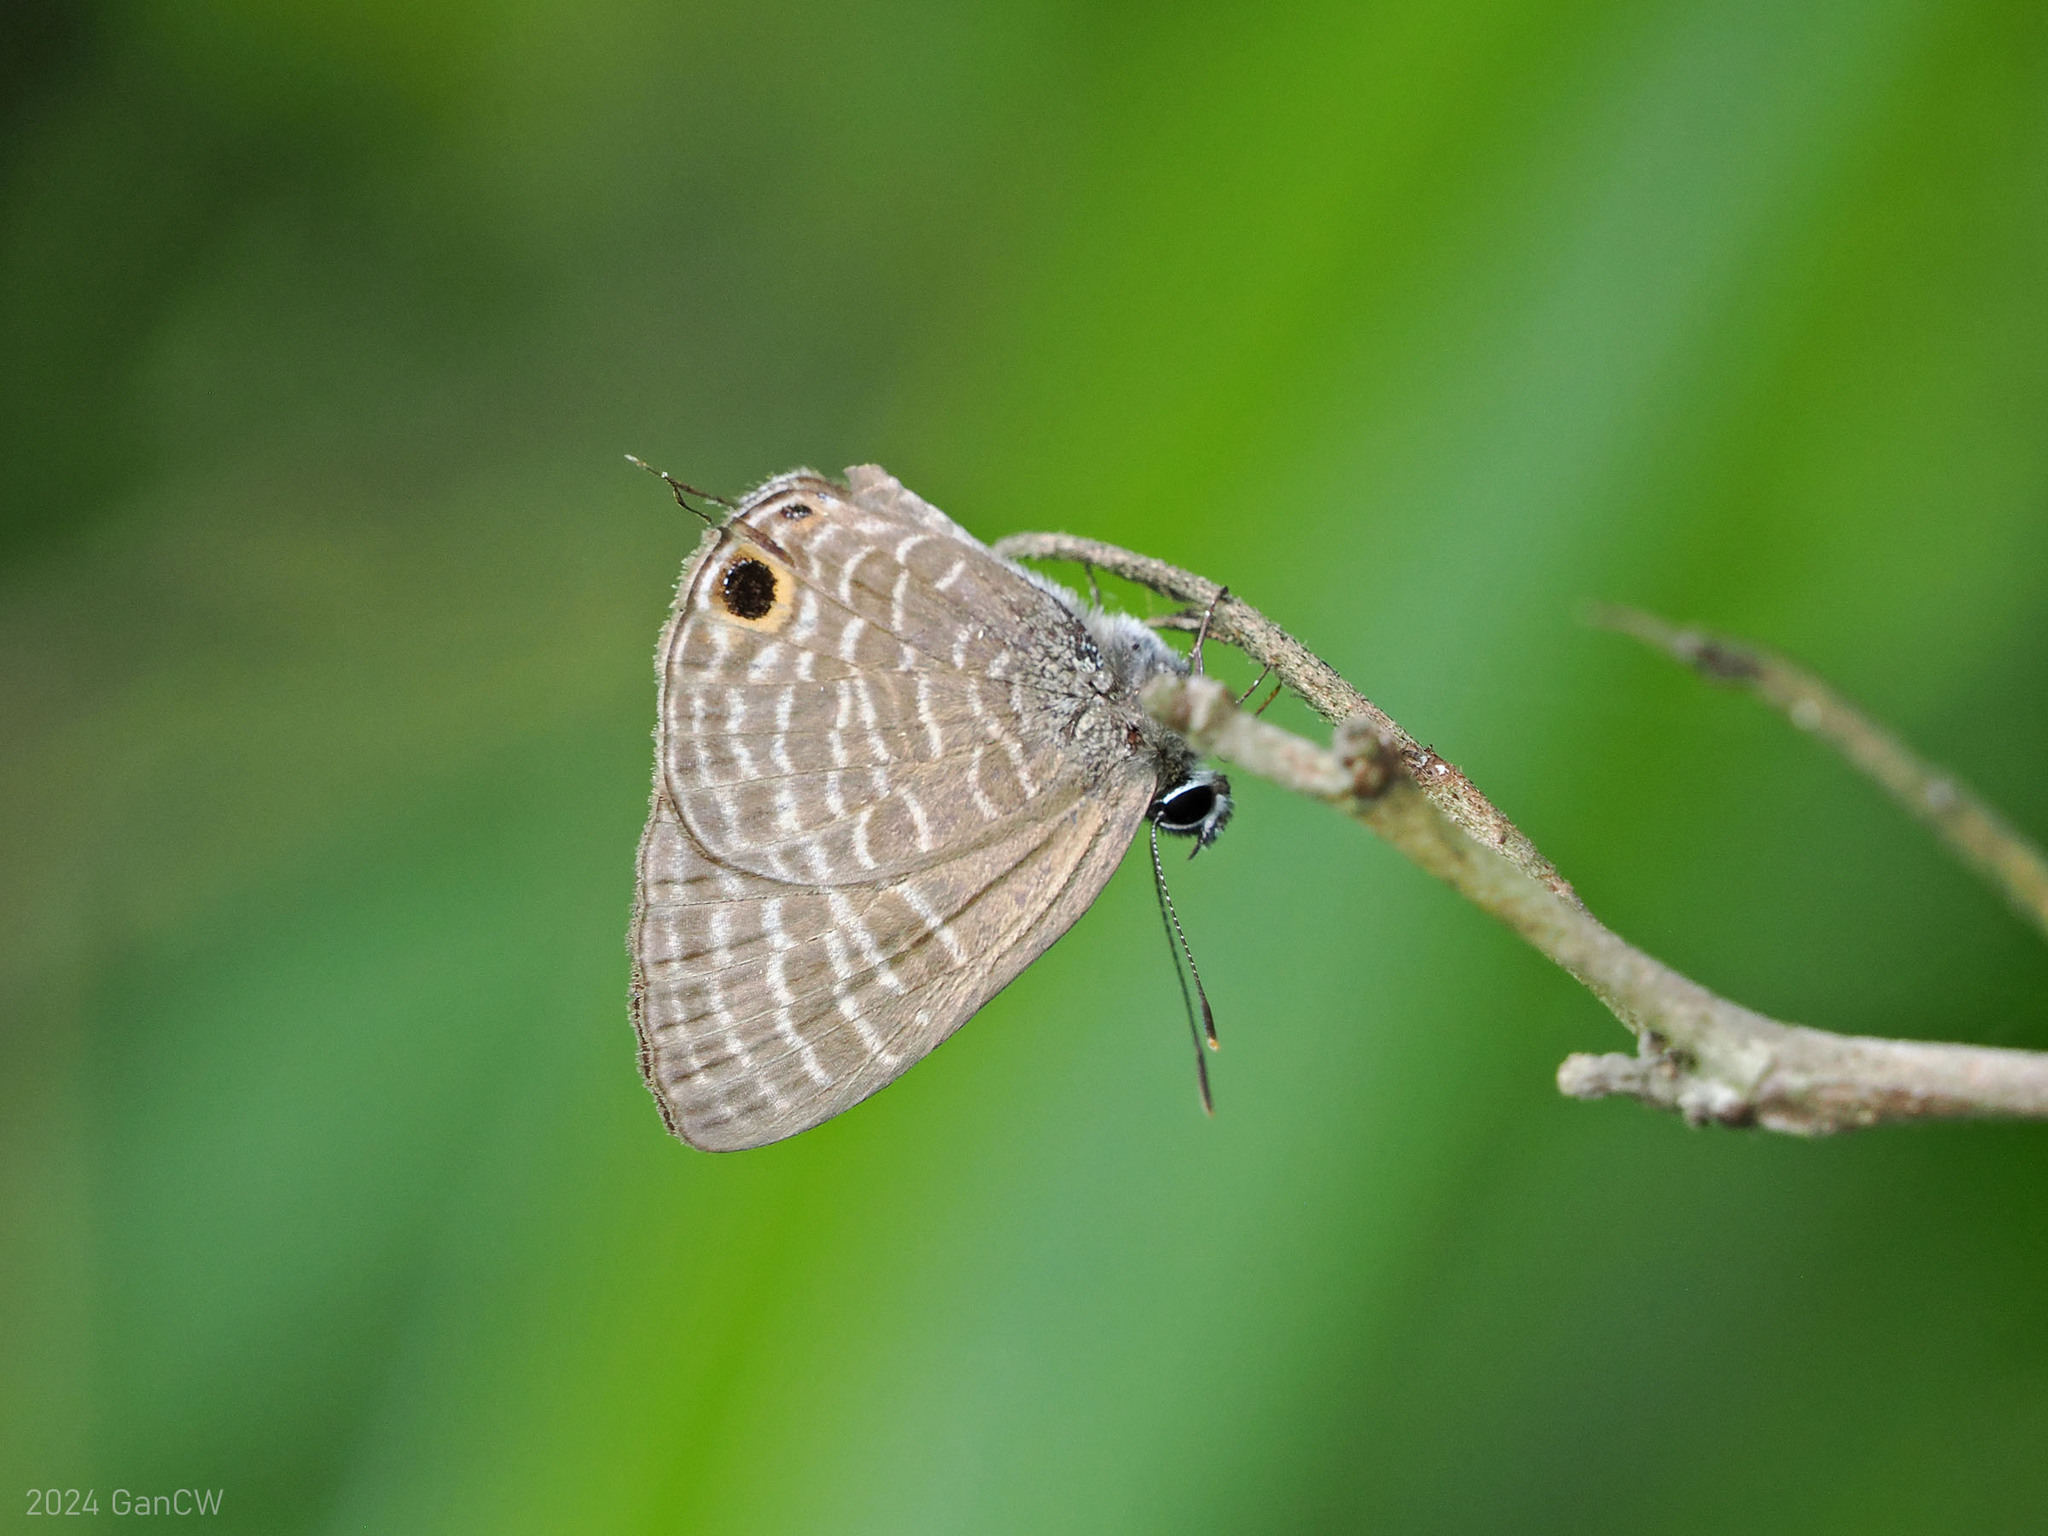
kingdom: Animalia
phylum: Arthropoda
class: Insecta
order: Lepidoptera
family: Lycaenidae
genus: Nacaduba
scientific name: Nacaduba pactolus
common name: Large fourline blue
